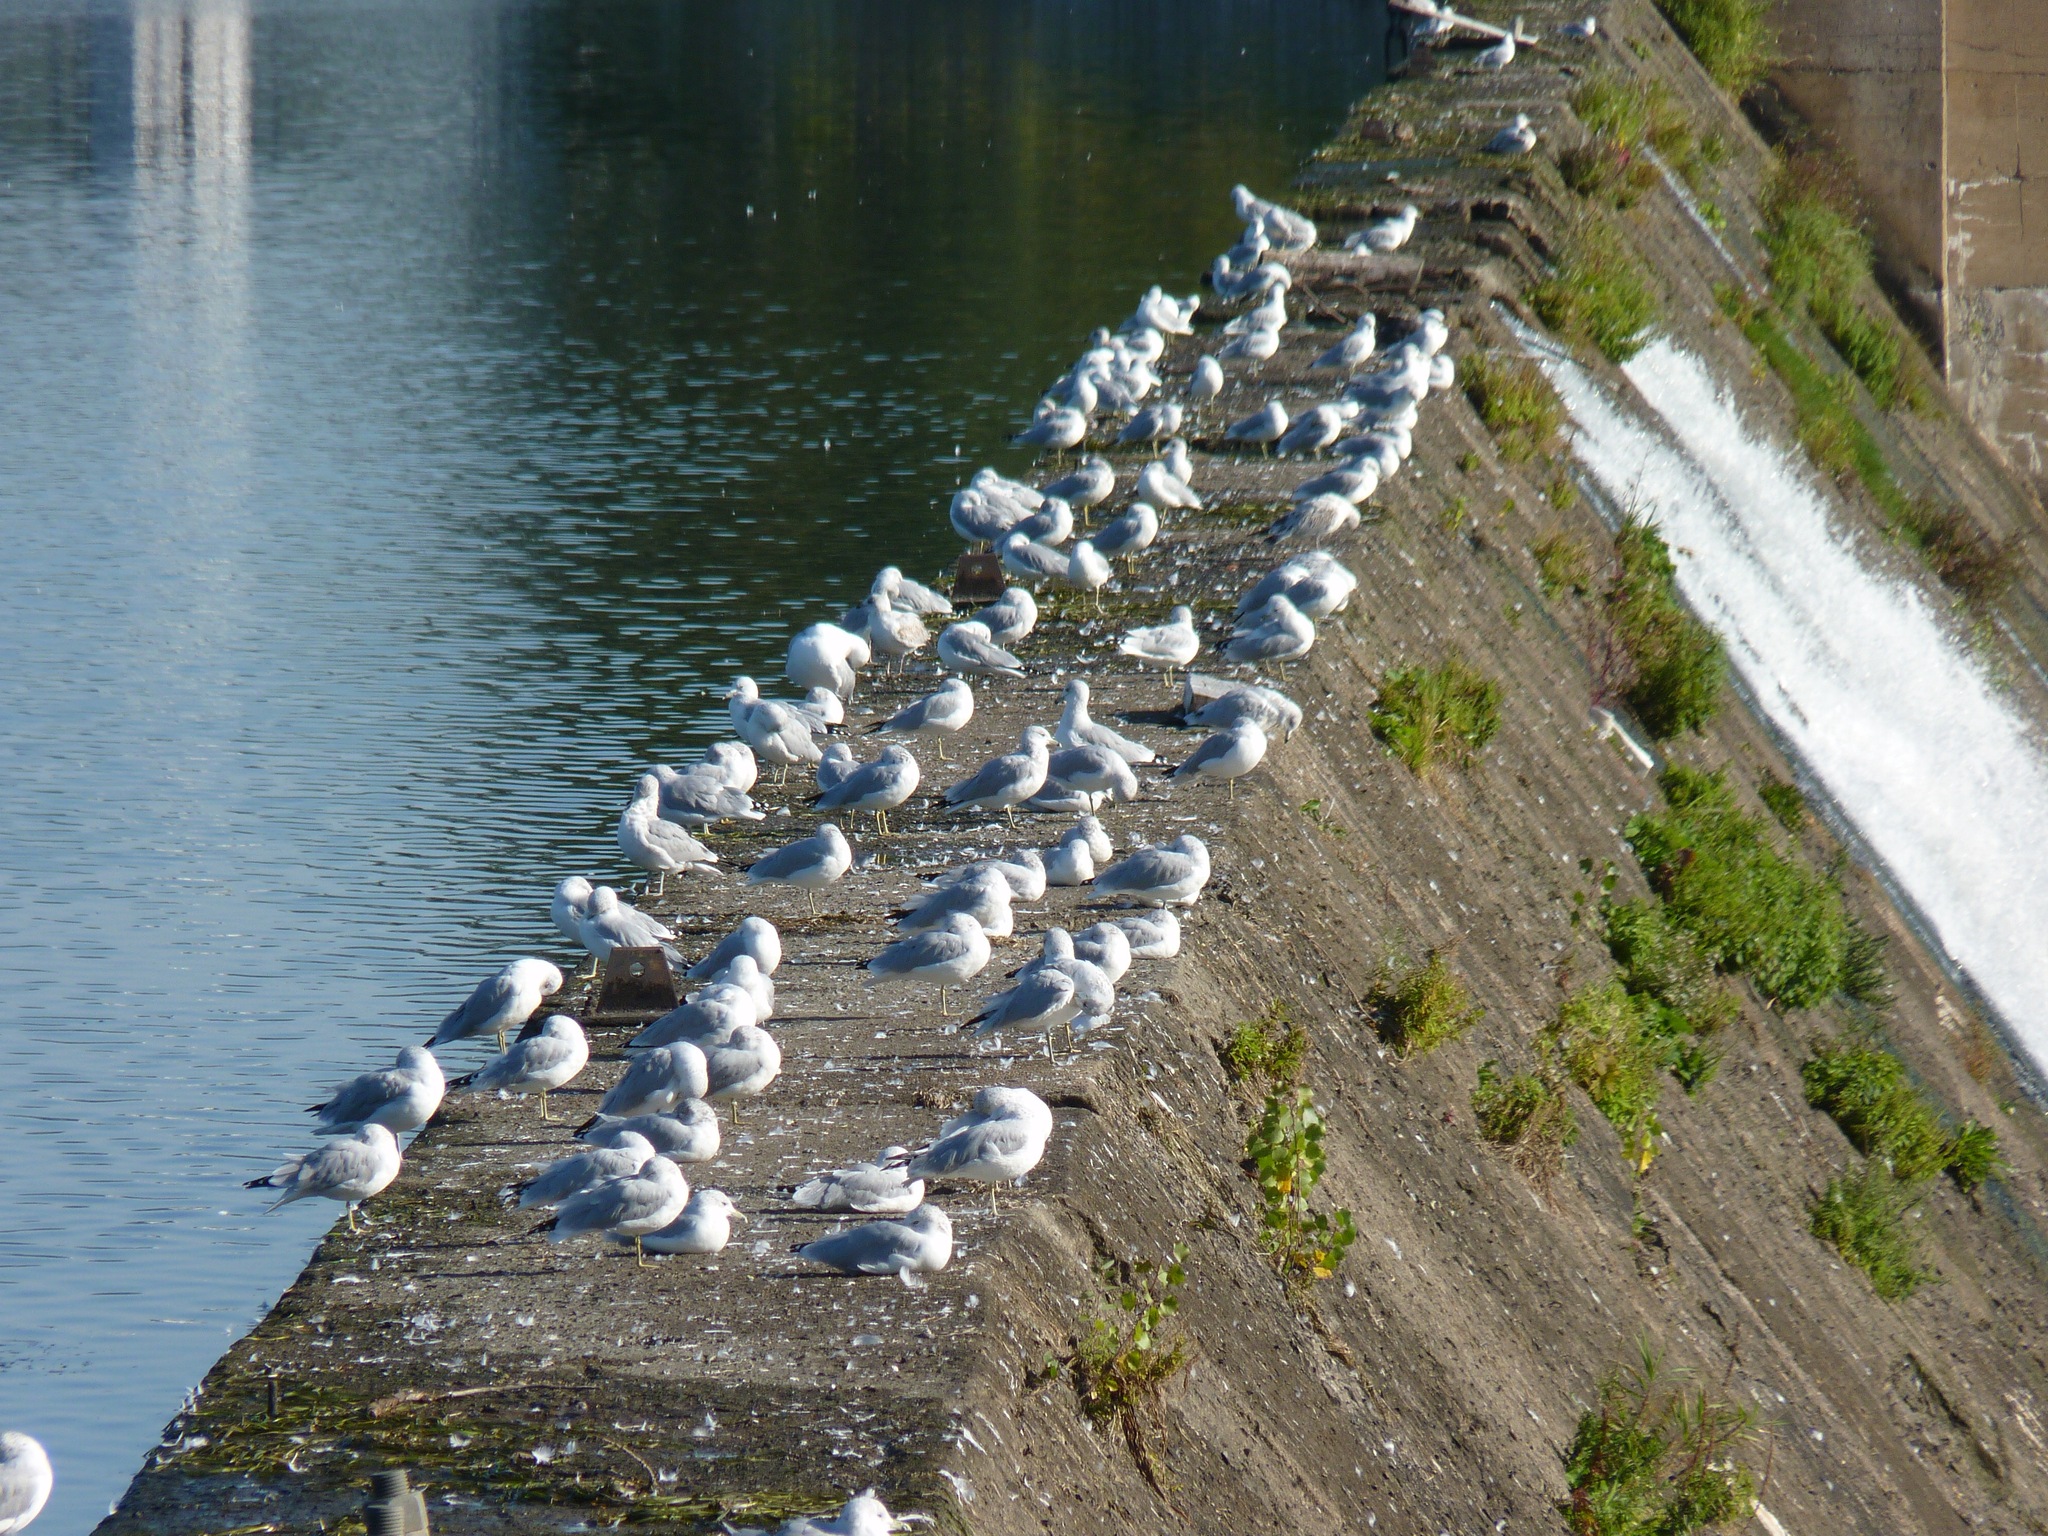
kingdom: Animalia
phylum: Chordata
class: Aves
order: Charadriiformes
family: Laridae
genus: Larus
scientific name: Larus delawarensis
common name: Ring-billed gull
